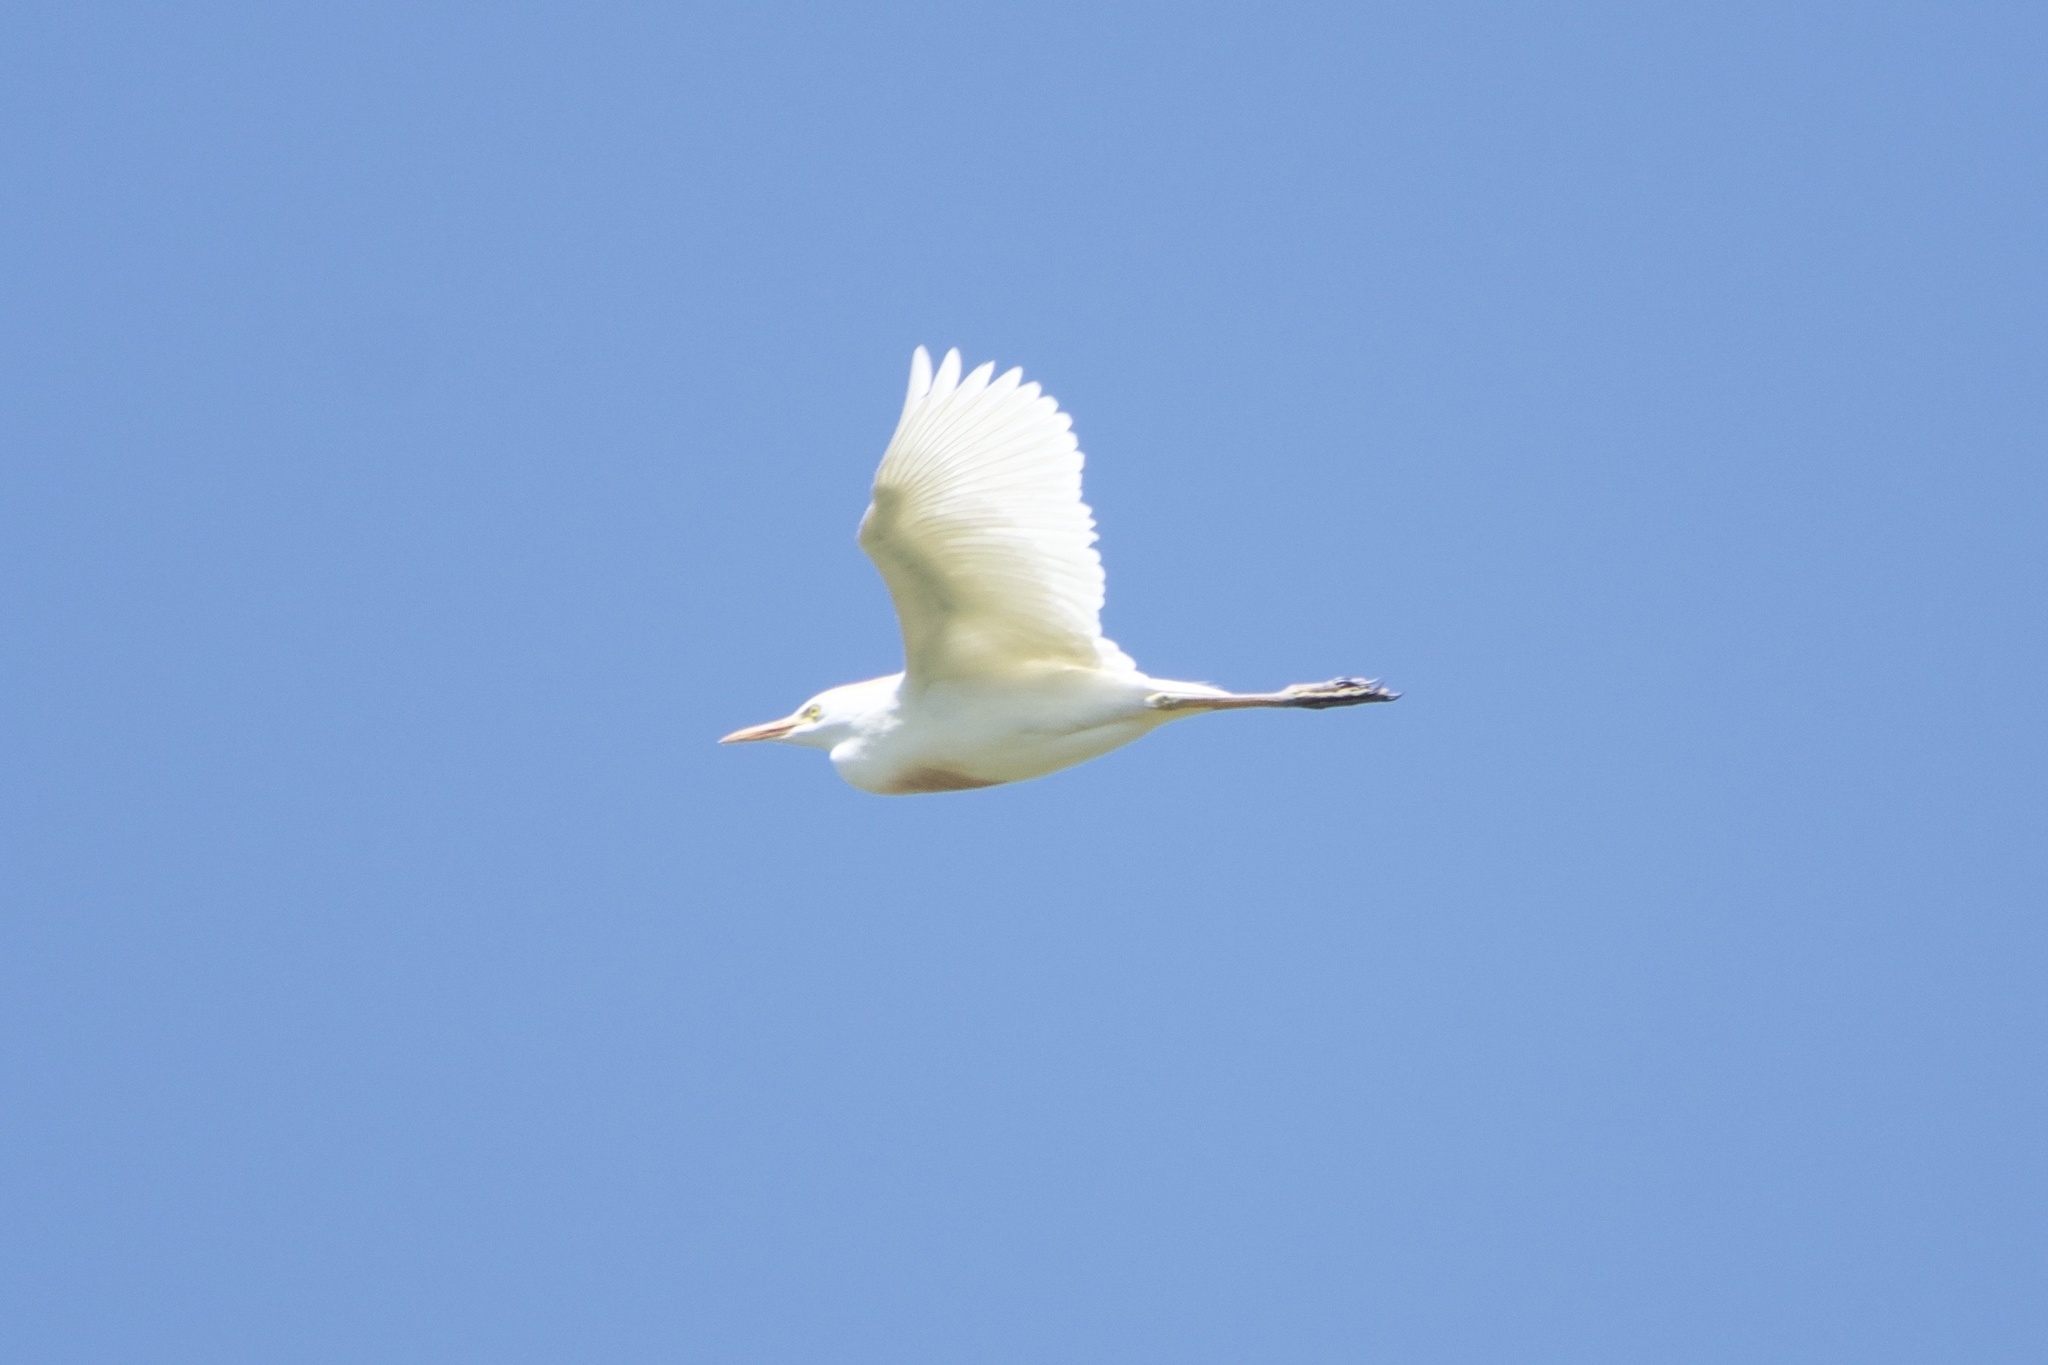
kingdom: Animalia
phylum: Chordata
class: Aves
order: Pelecaniformes
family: Ardeidae
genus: Bubulcus
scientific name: Bubulcus ibis
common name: Cattle egret
